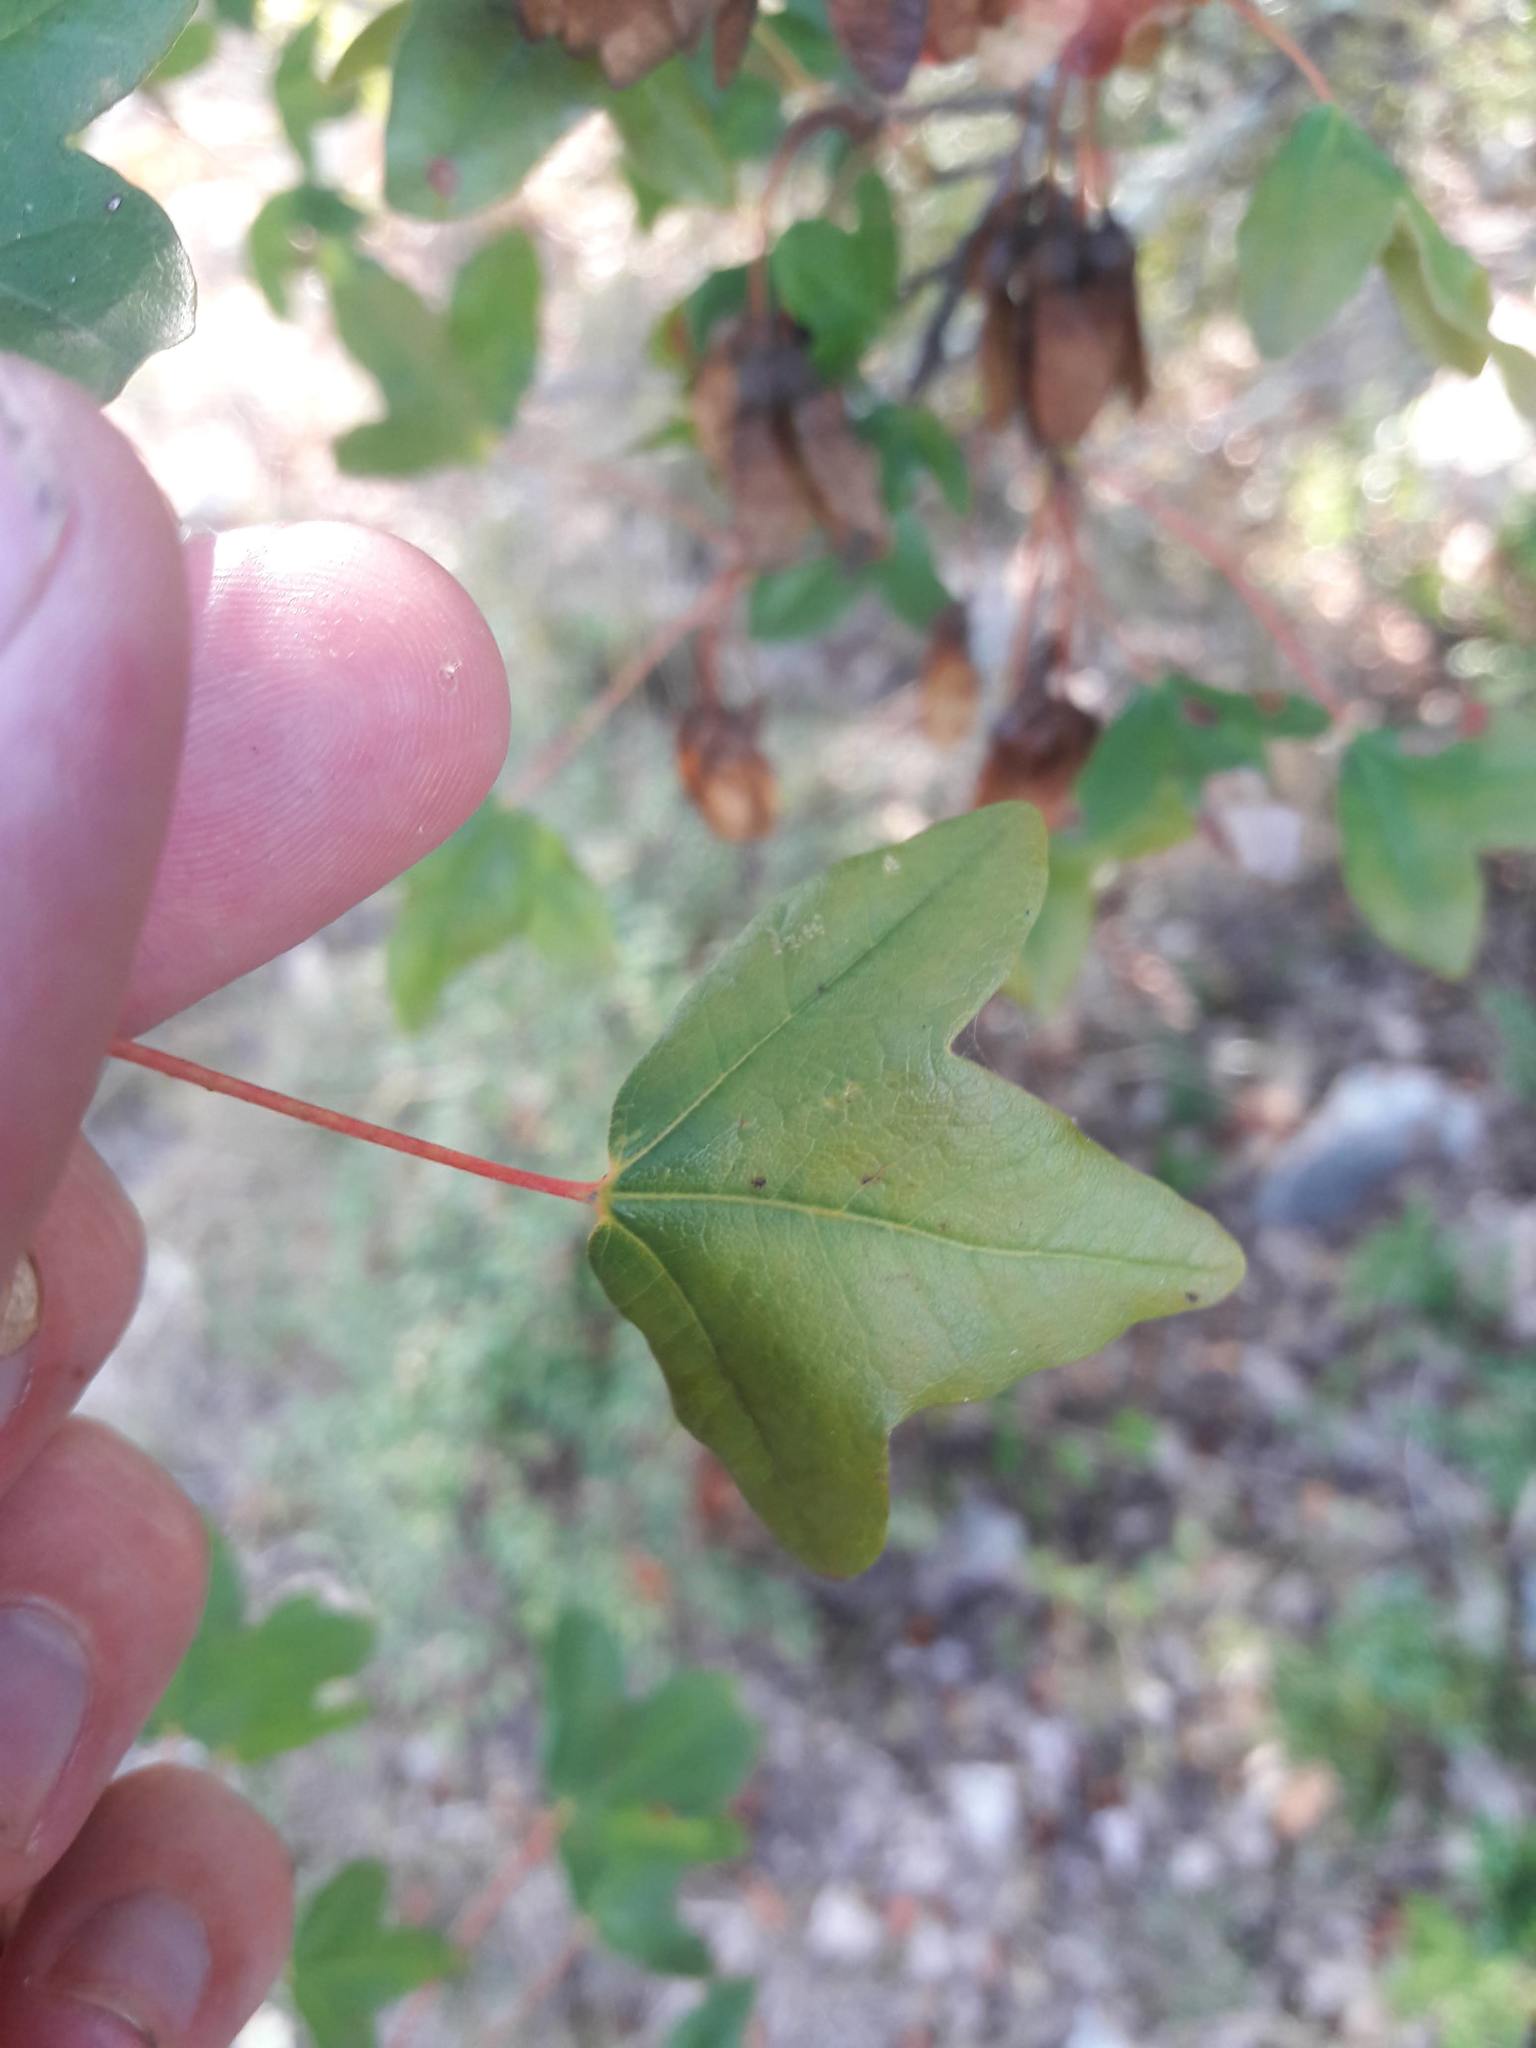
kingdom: Plantae
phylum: Tracheophyta
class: Magnoliopsida
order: Sapindales
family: Sapindaceae
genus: Acer
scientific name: Acer monspessulanum
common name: Montpellier maple
